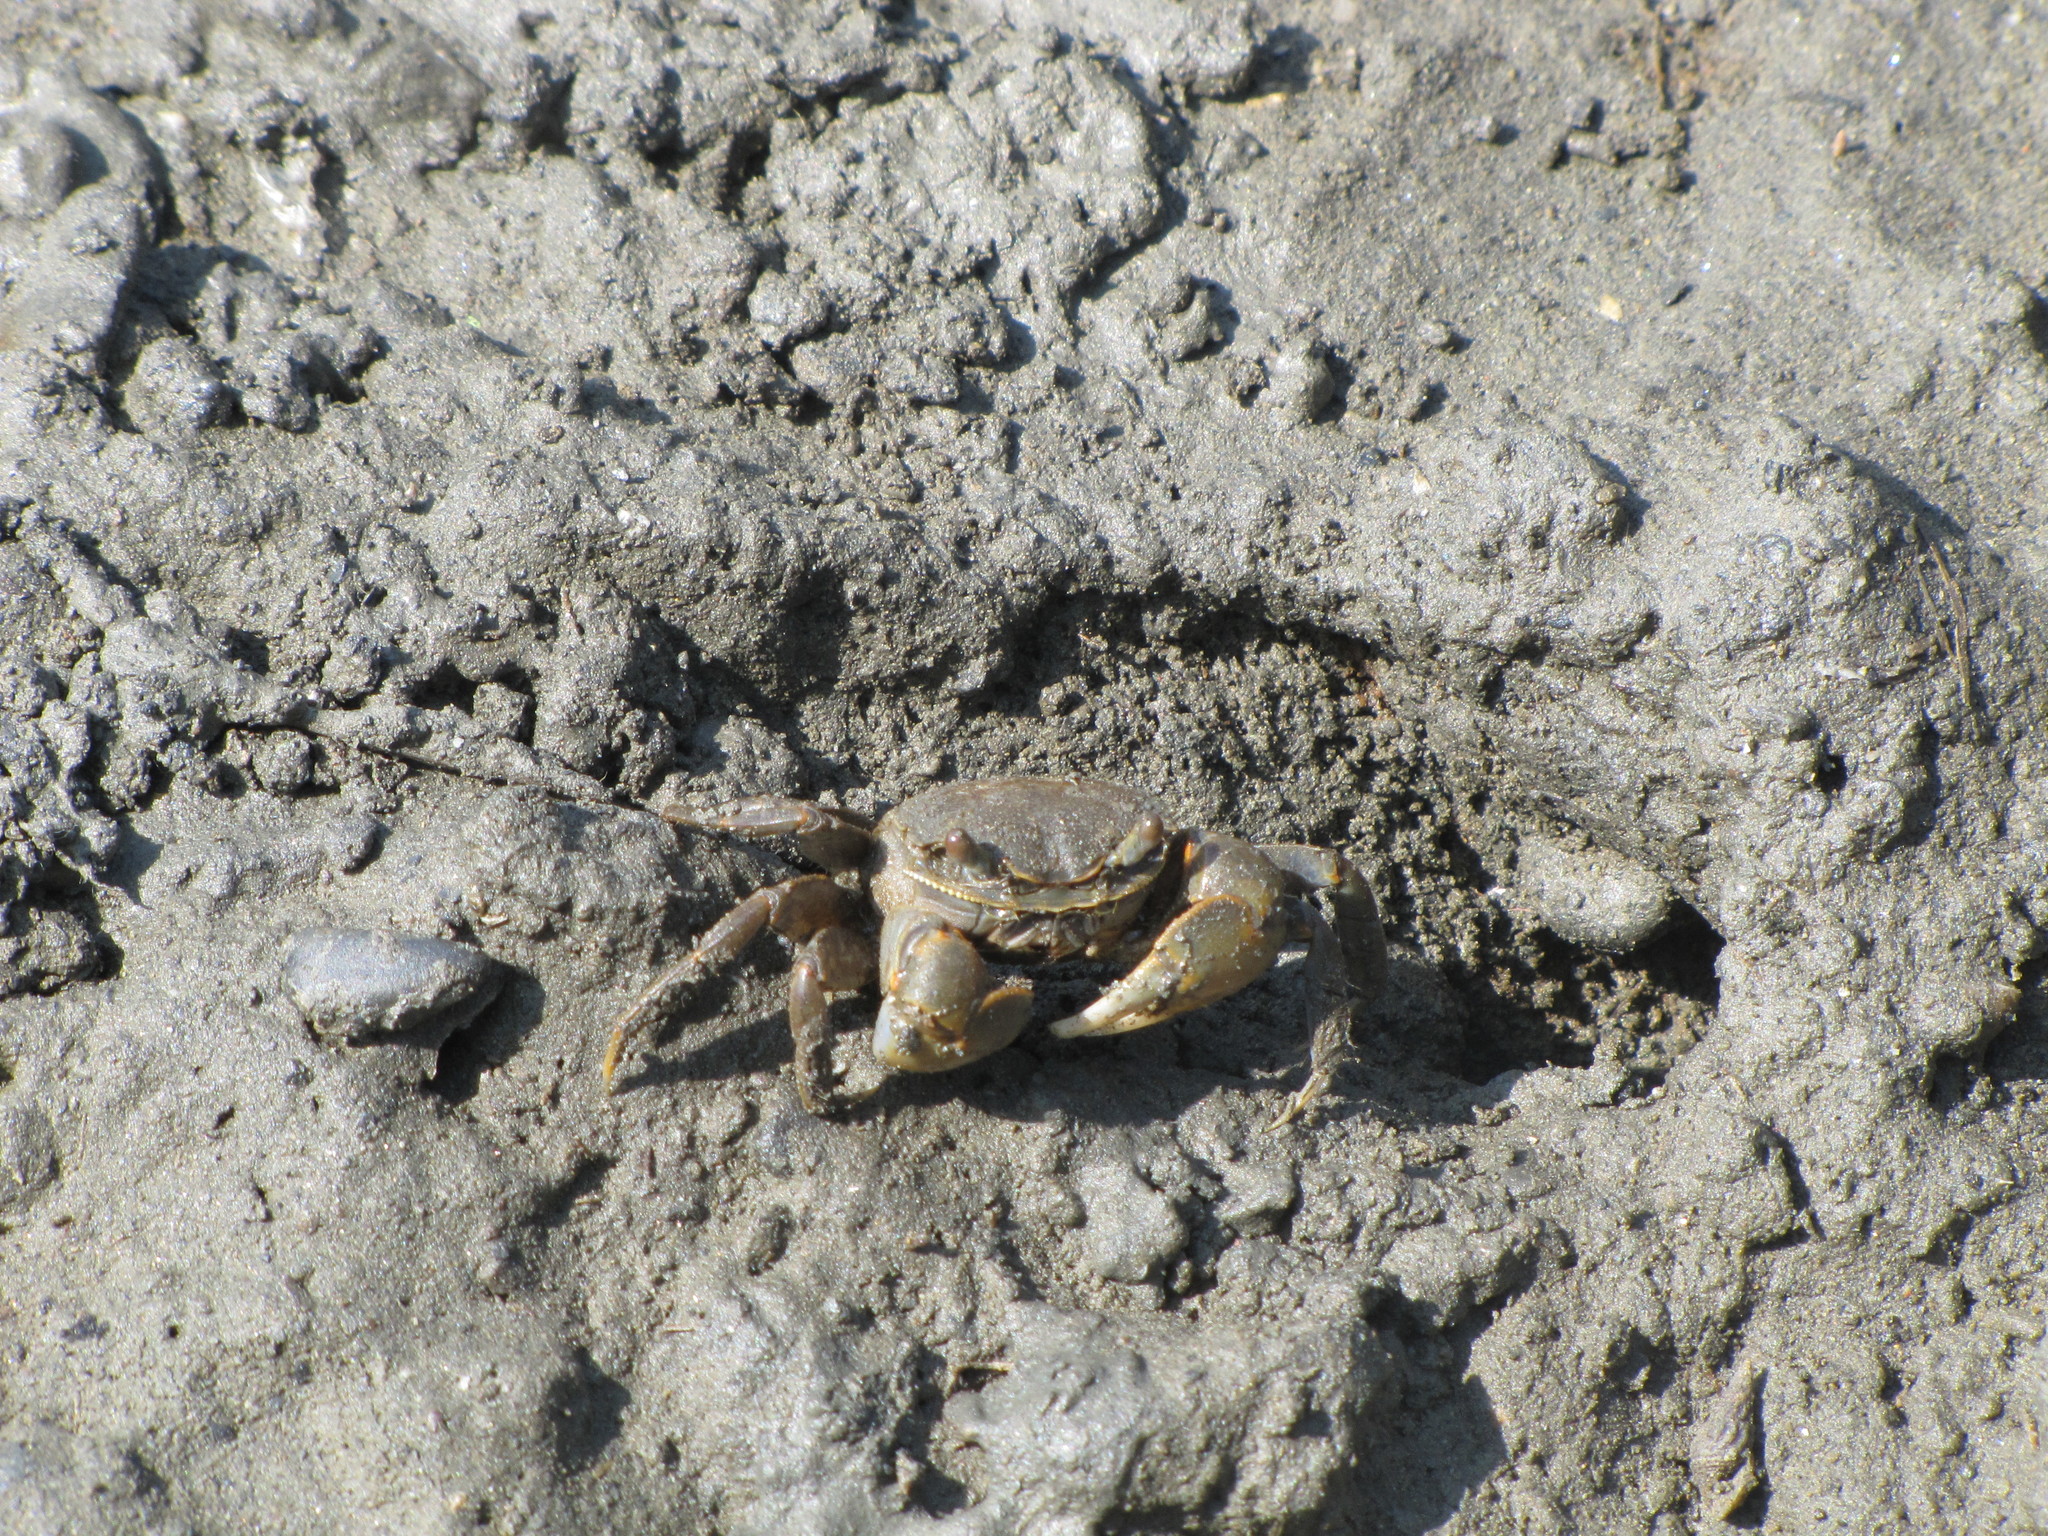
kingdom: Animalia
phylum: Arthropoda
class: Malacostraca
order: Decapoda
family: Varunidae
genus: Helice
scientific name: Helice formosensis
